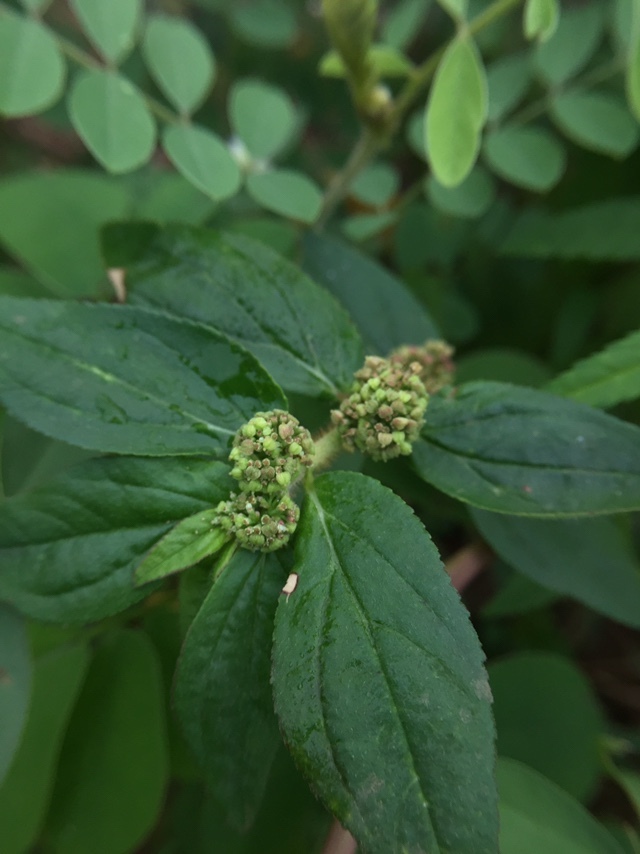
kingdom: Plantae
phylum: Tracheophyta
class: Magnoliopsida
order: Malpighiales
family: Euphorbiaceae
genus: Euphorbia
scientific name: Euphorbia hirta
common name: Pillpod sandmat
